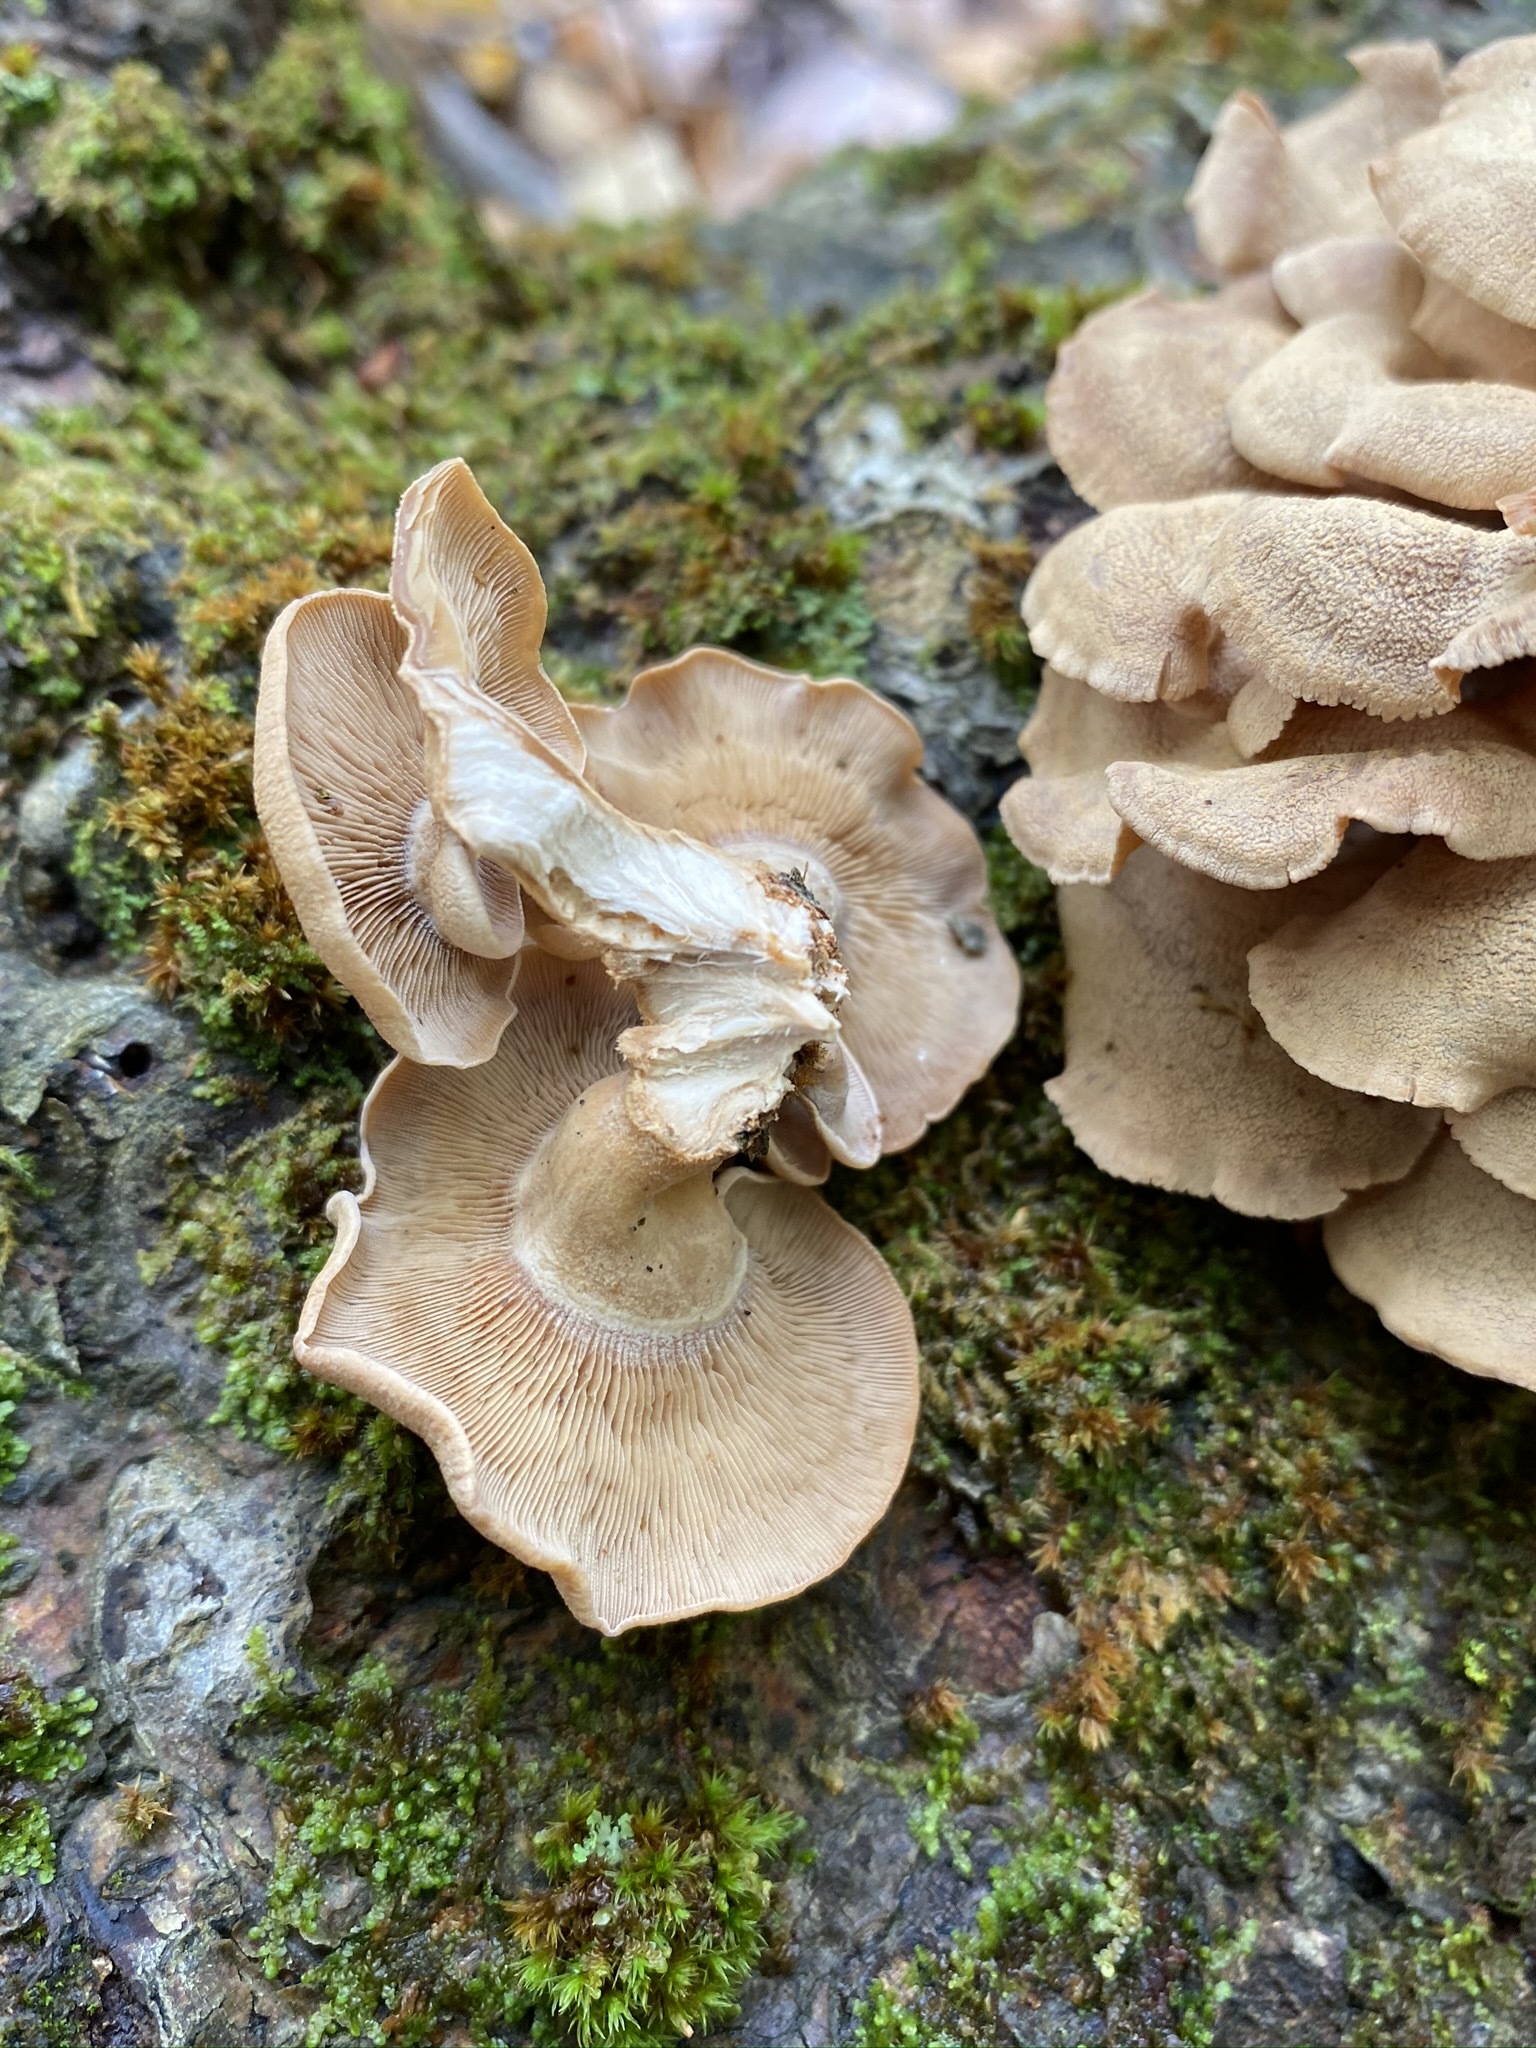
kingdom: Fungi
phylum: Basidiomycota
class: Agaricomycetes
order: Agaricales
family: Mycenaceae
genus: Panellus
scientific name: Panellus stipticus
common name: Bitter oysterling
